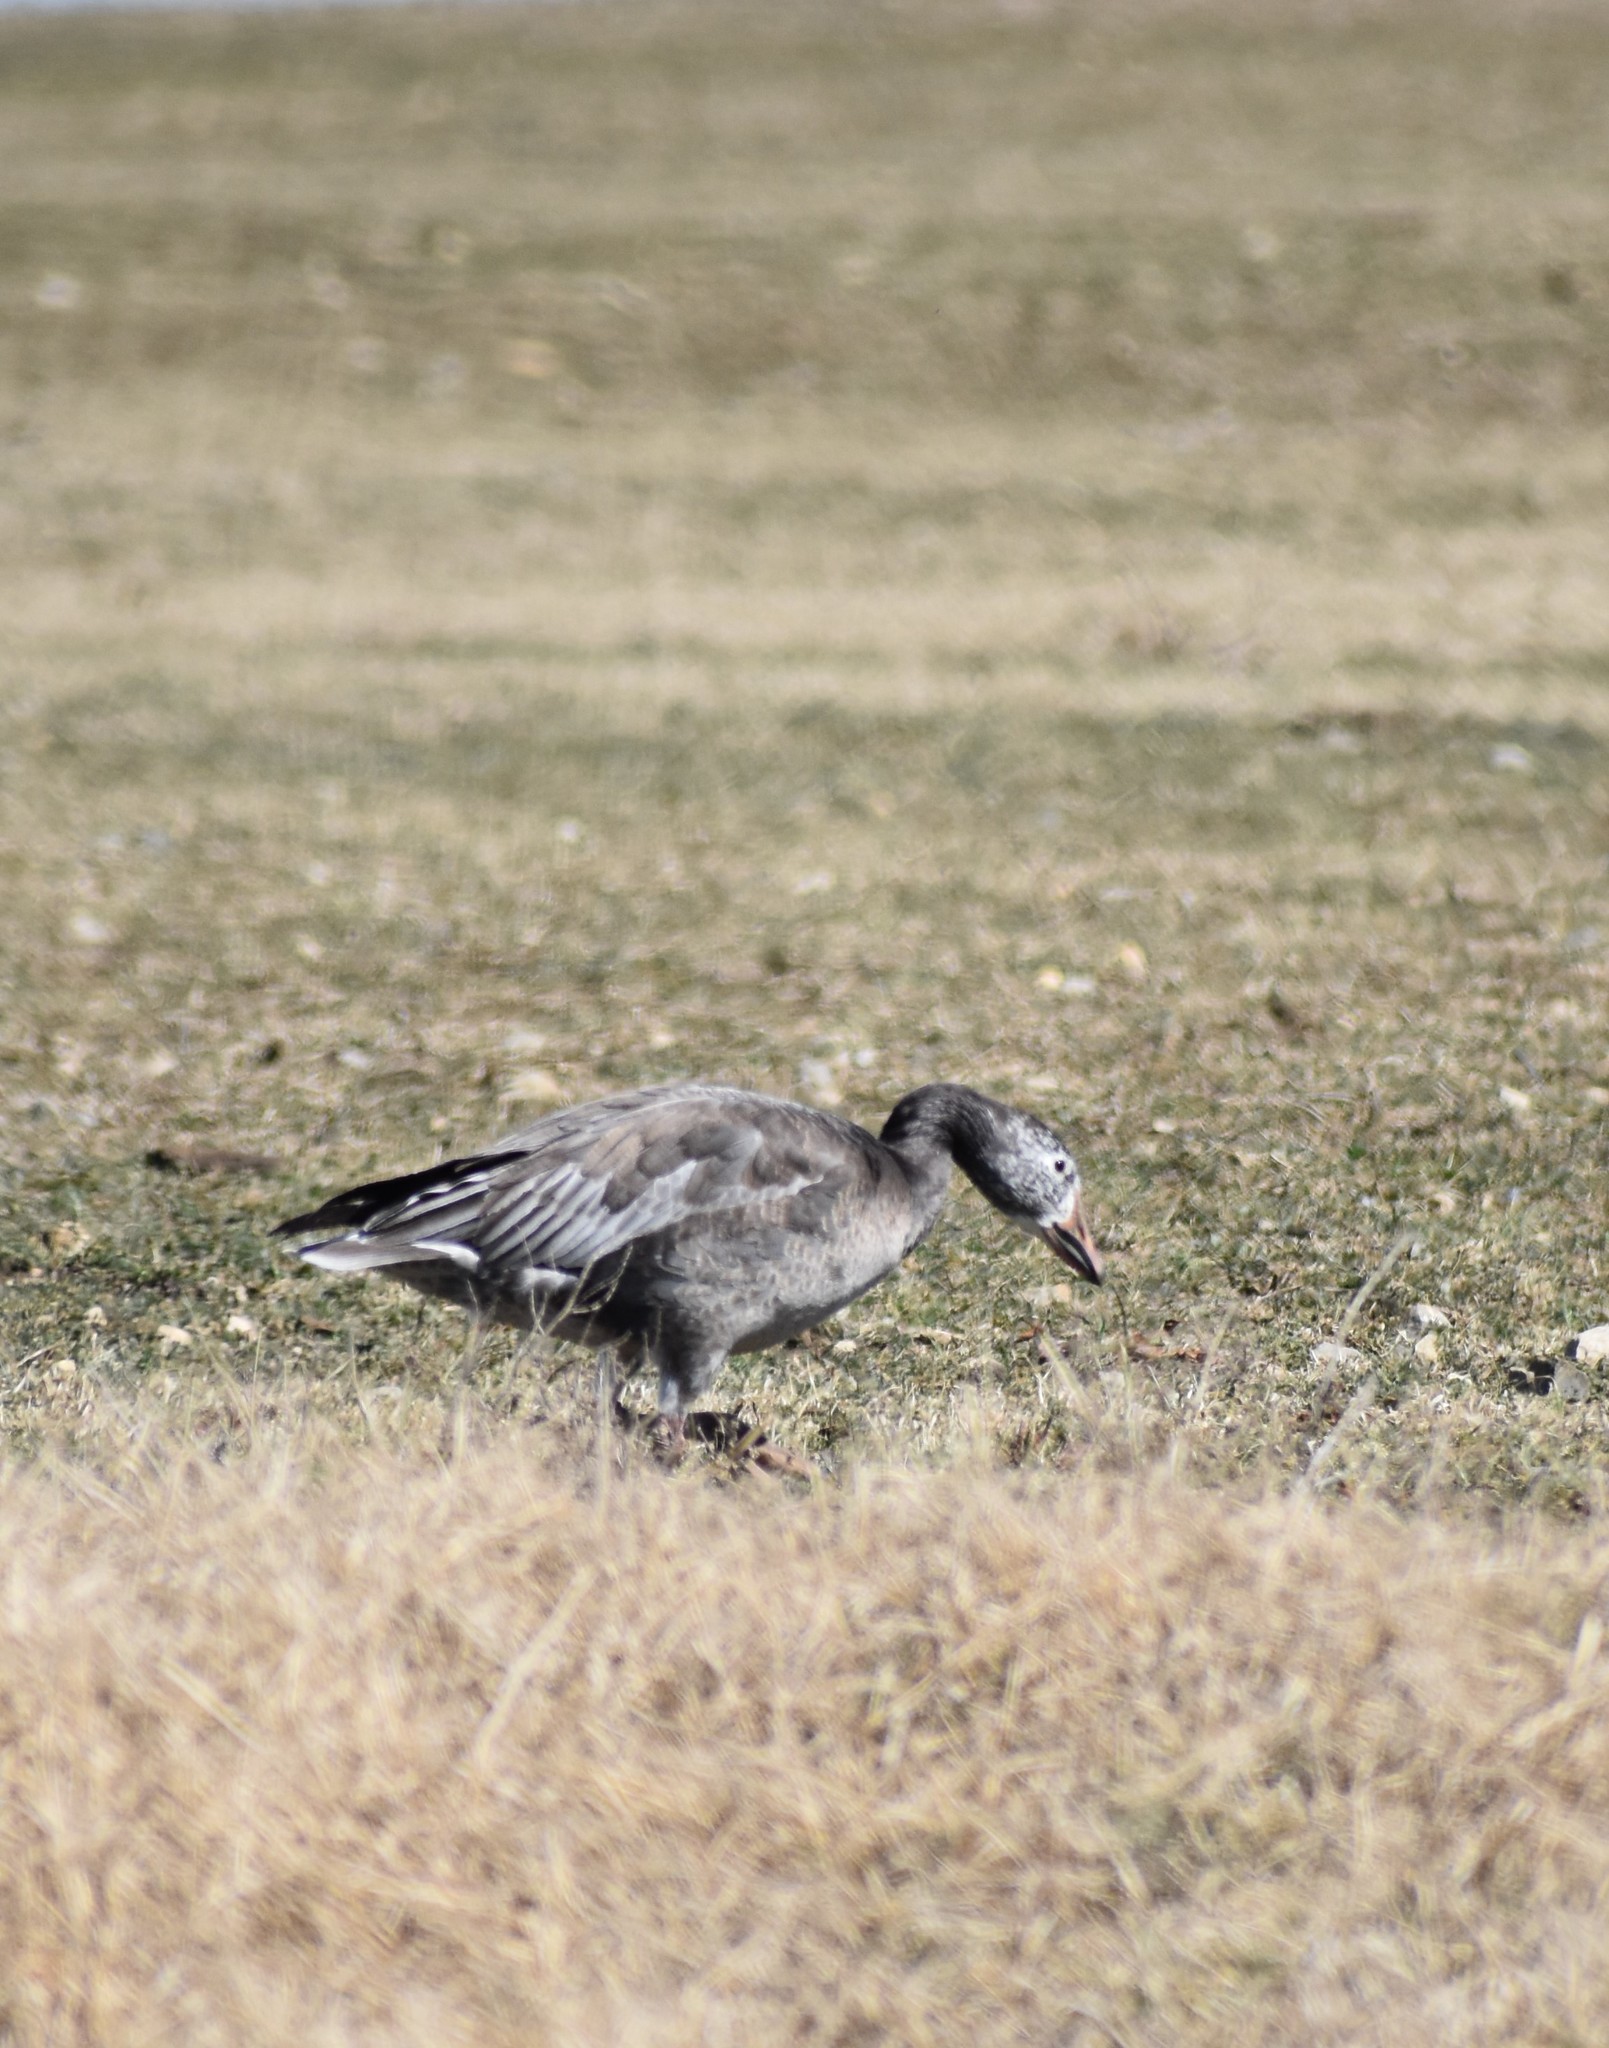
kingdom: Animalia
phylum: Chordata
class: Aves
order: Anseriformes
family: Anatidae
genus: Anser
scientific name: Anser caerulescens
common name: Snow goose
